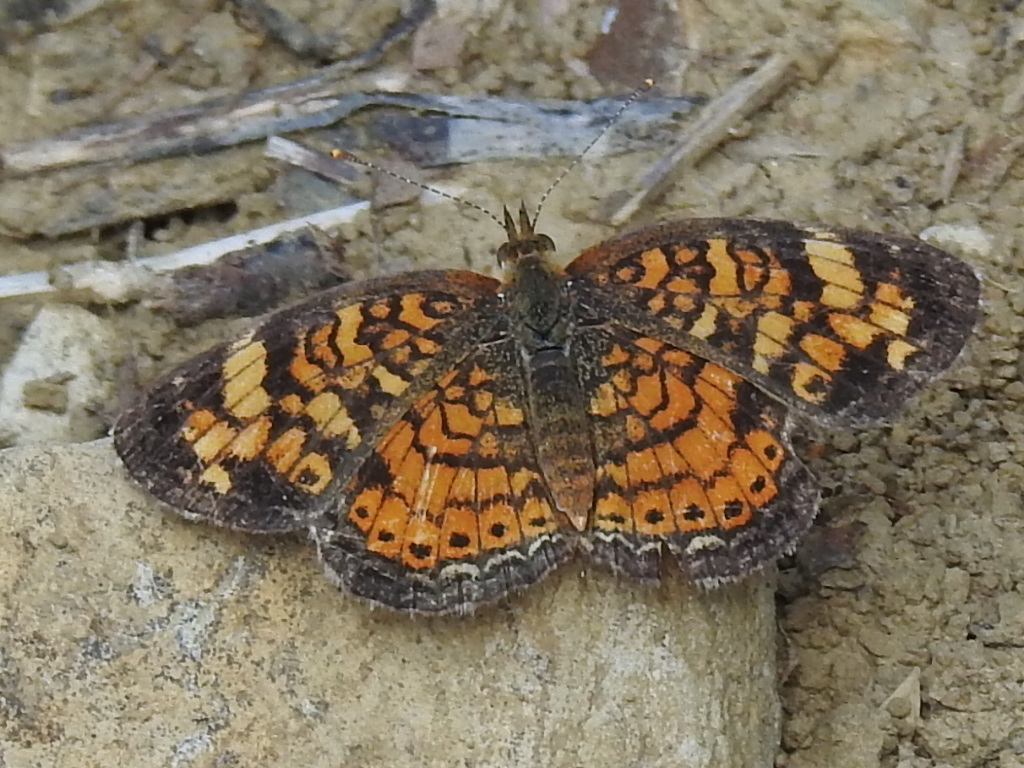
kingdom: Animalia
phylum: Arthropoda
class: Insecta
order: Lepidoptera
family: Nymphalidae
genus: Phyciodes
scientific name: Phyciodes tharos
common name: Pearl crescent
